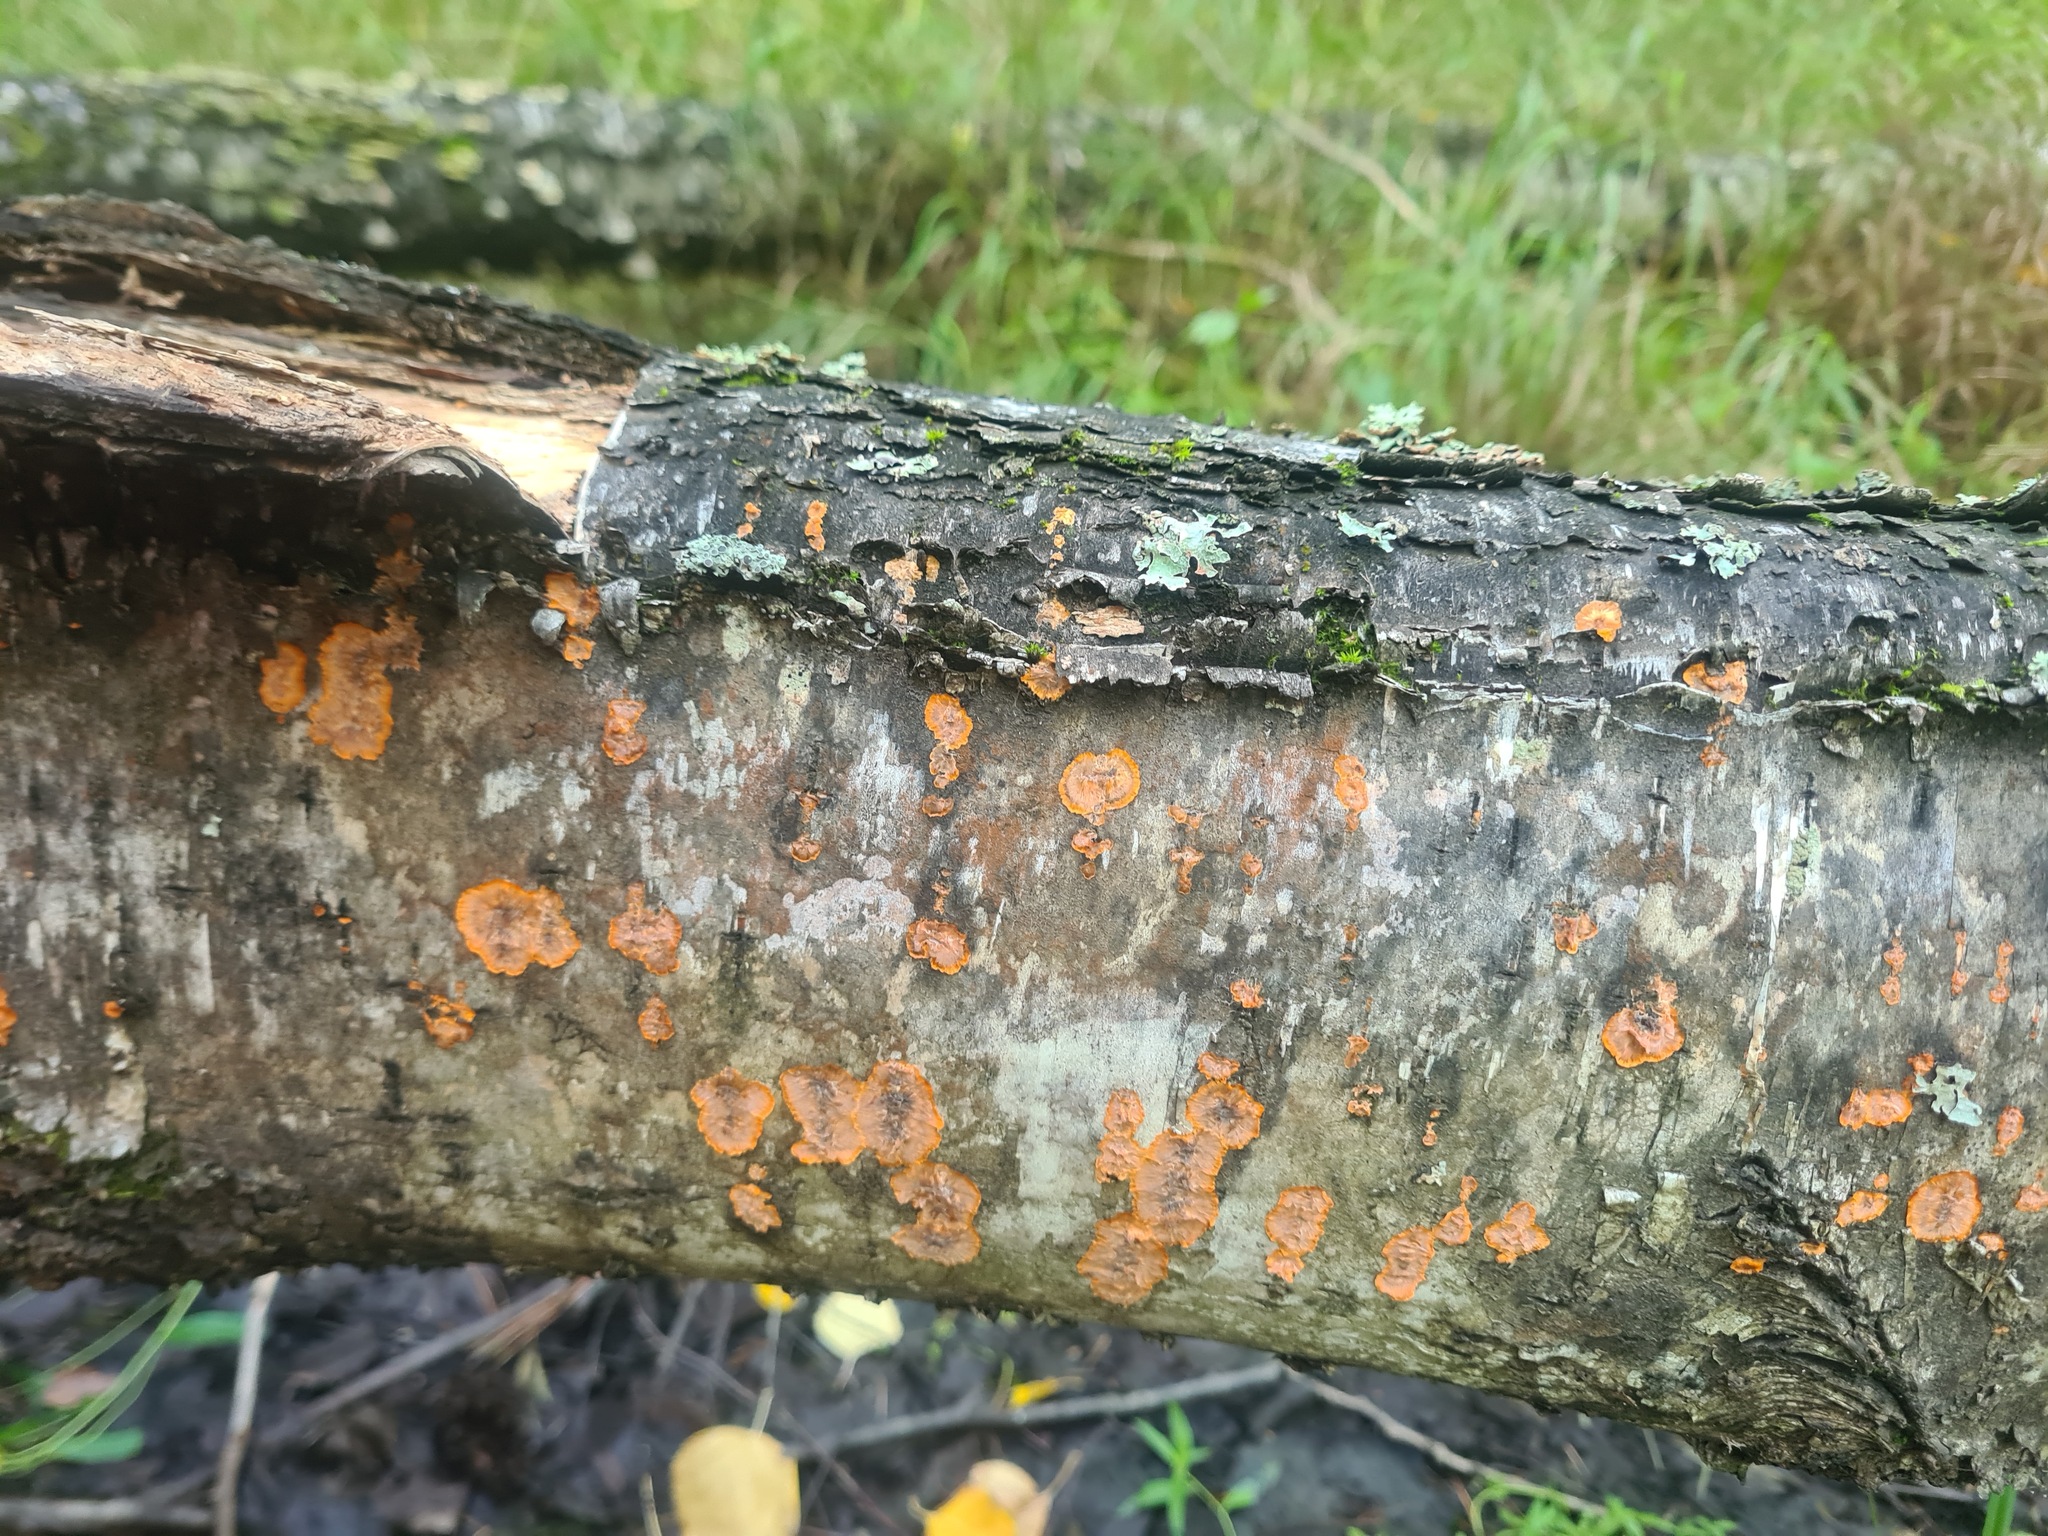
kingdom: Fungi
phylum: Basidiomycota
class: Agaricomycetes
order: Polyporales
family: Meruliaceae
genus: Phlebia
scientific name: Phlebia radiata
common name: Wrinkled crust
